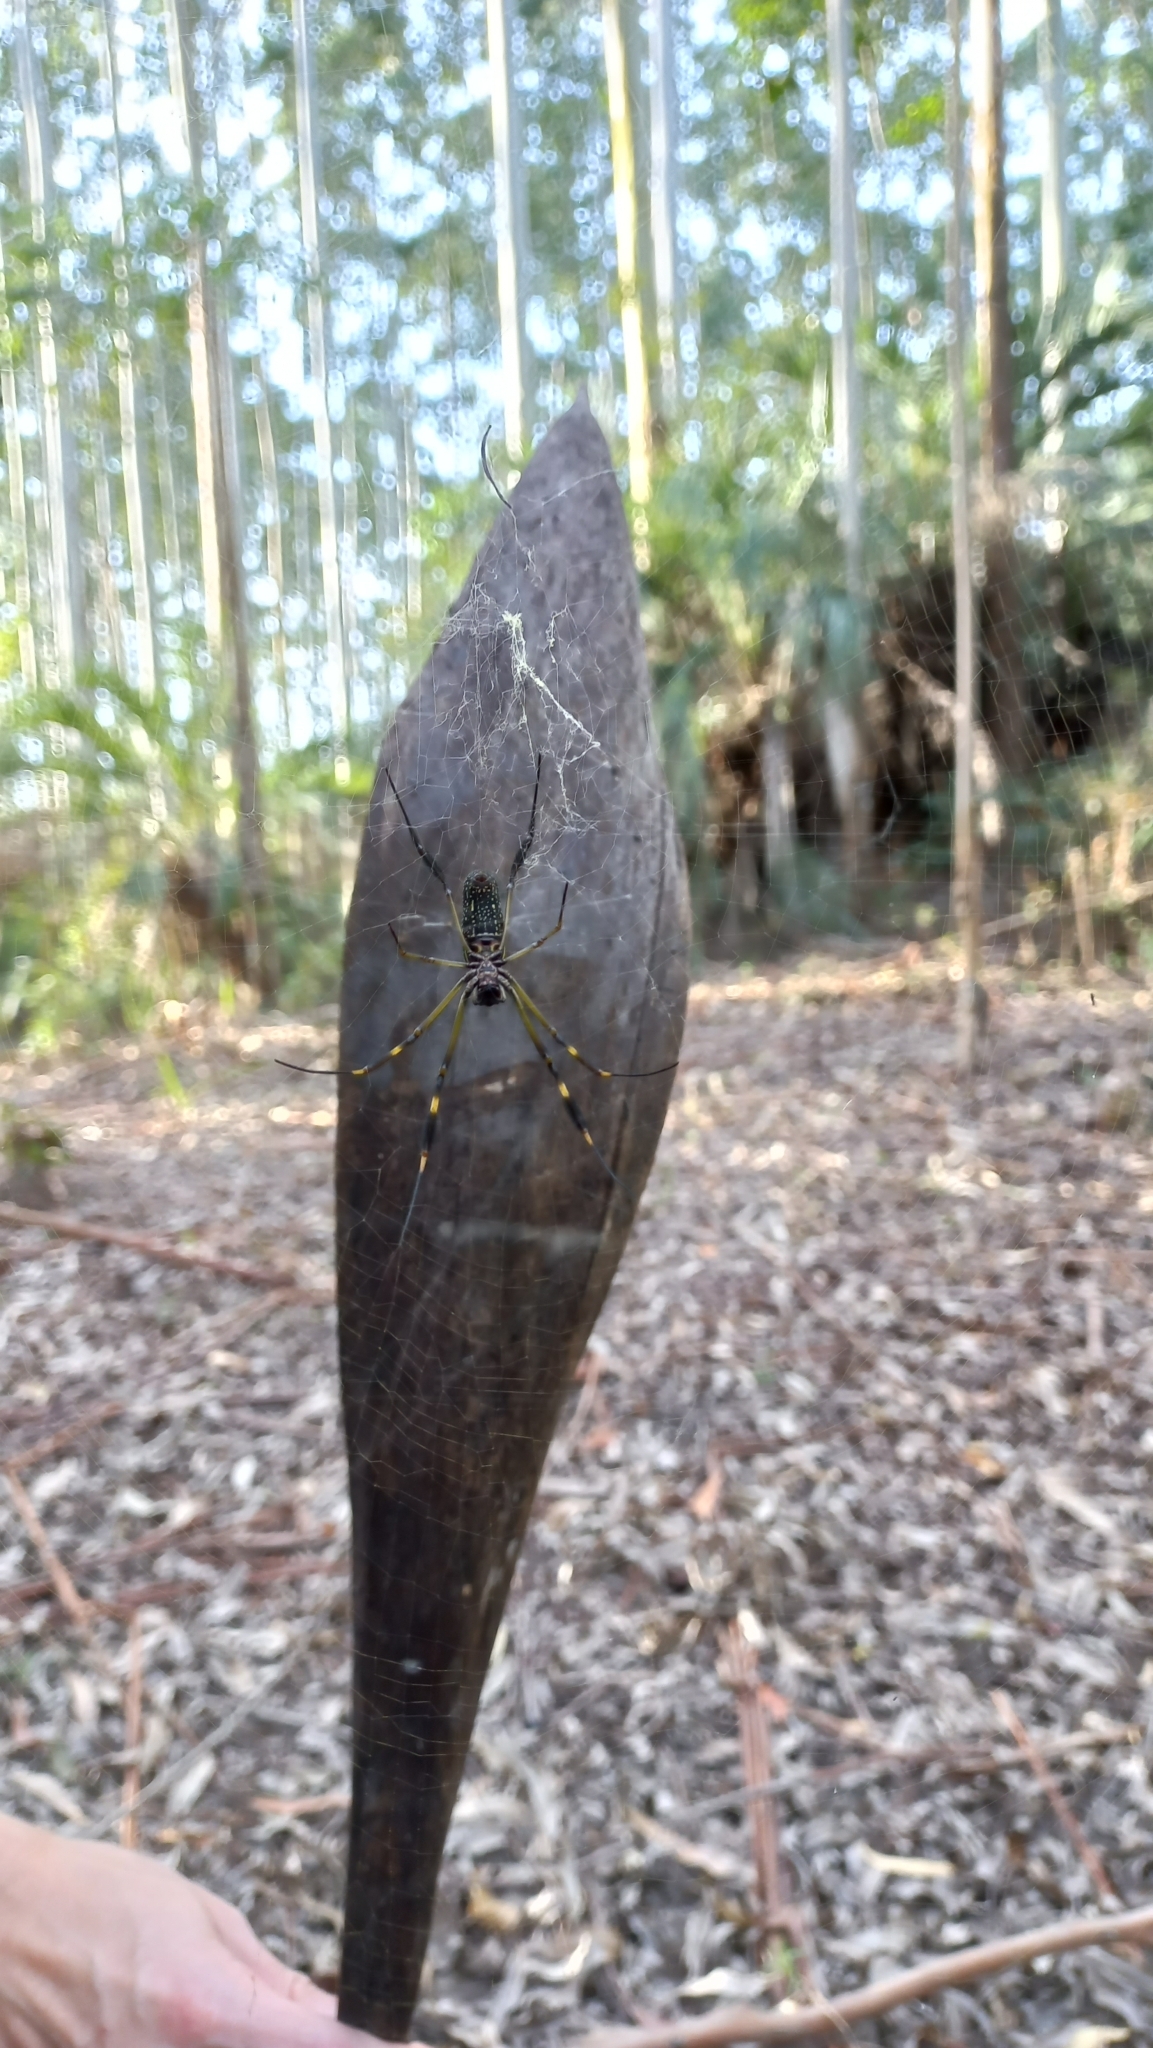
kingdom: Animalia
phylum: Arthropoda
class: Arachnida
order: Araneae
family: Araneidae
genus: Trichonephila
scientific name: Trichonephila clavipes
